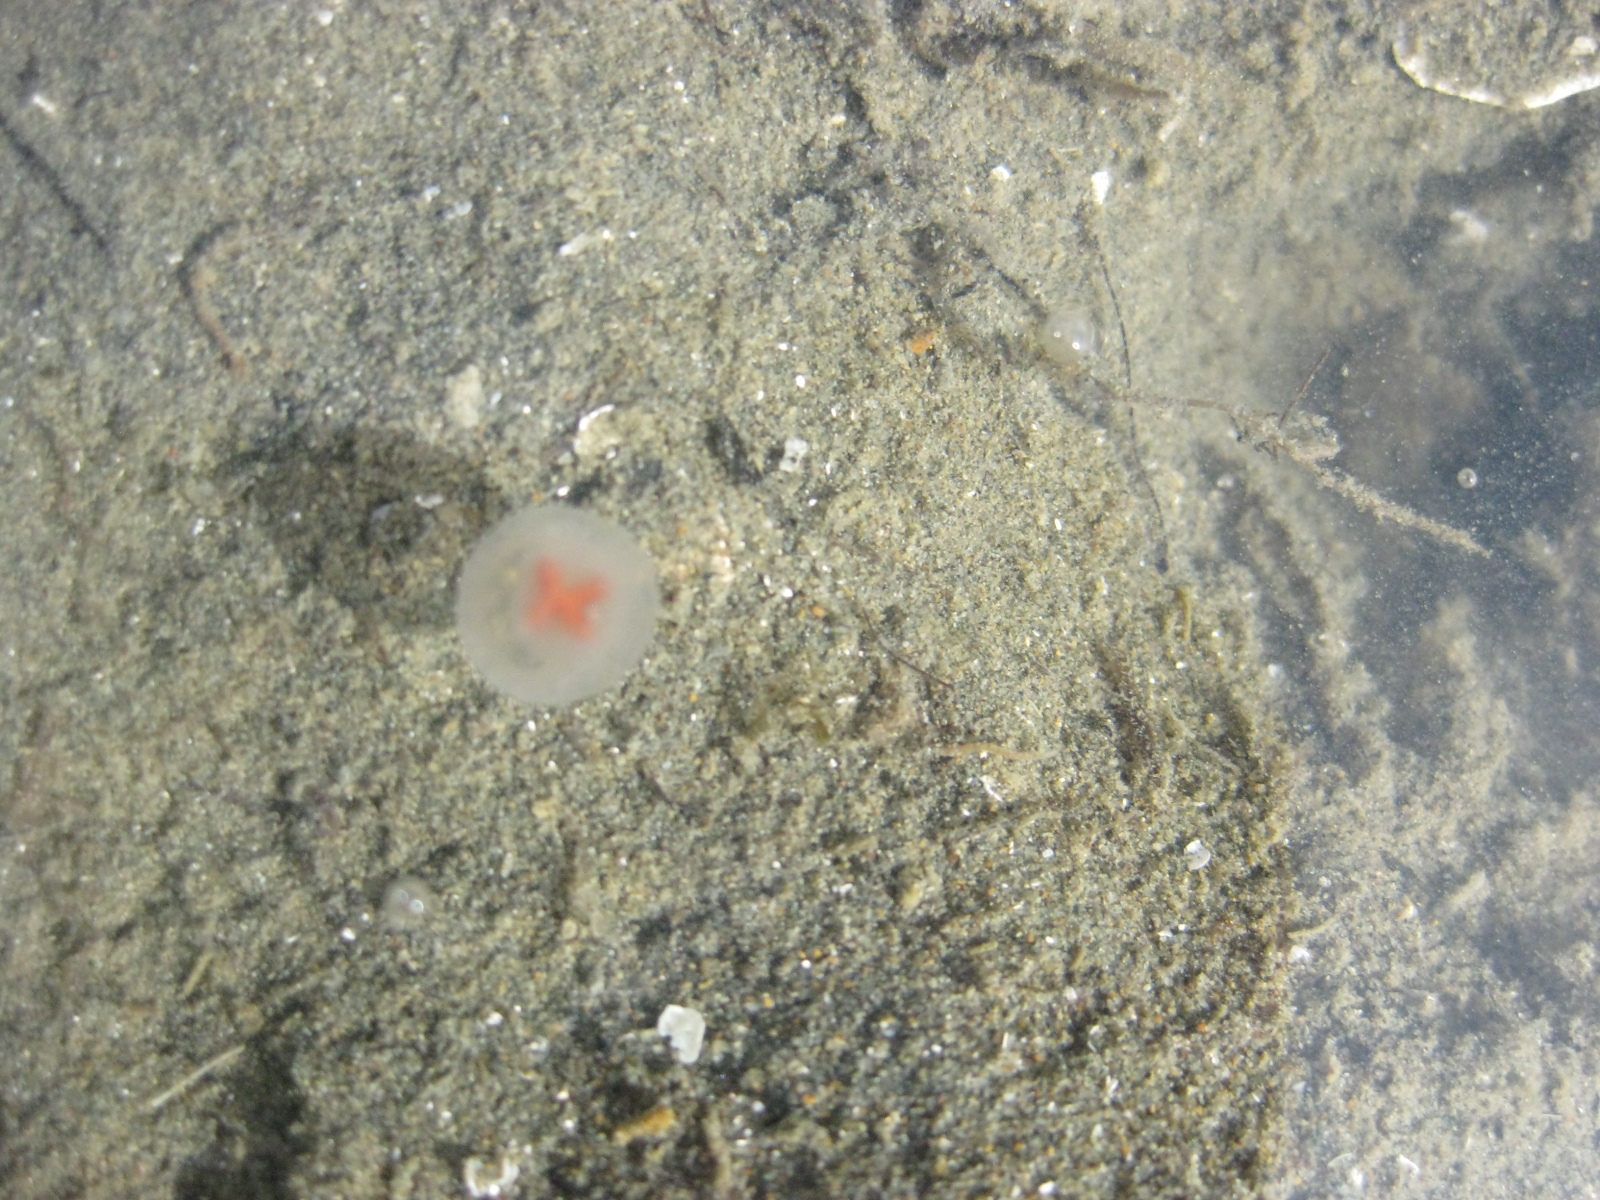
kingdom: Animalia
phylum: Cnidaria
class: Hydrozoa
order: Anthoathecata
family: Oceaniidae
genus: Turritopsis
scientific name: Turritopsis rubra
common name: Crimson jelly
